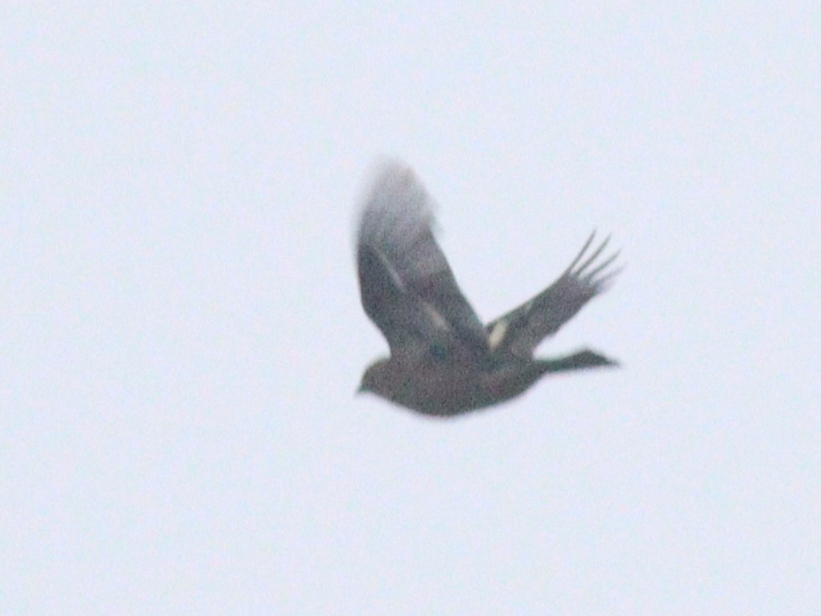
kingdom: Animalia
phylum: Chordata
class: Aves
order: Passeriformes
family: Fringillidae
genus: Fringilla
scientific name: Fringilla coelebs
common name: Common chaffinch
